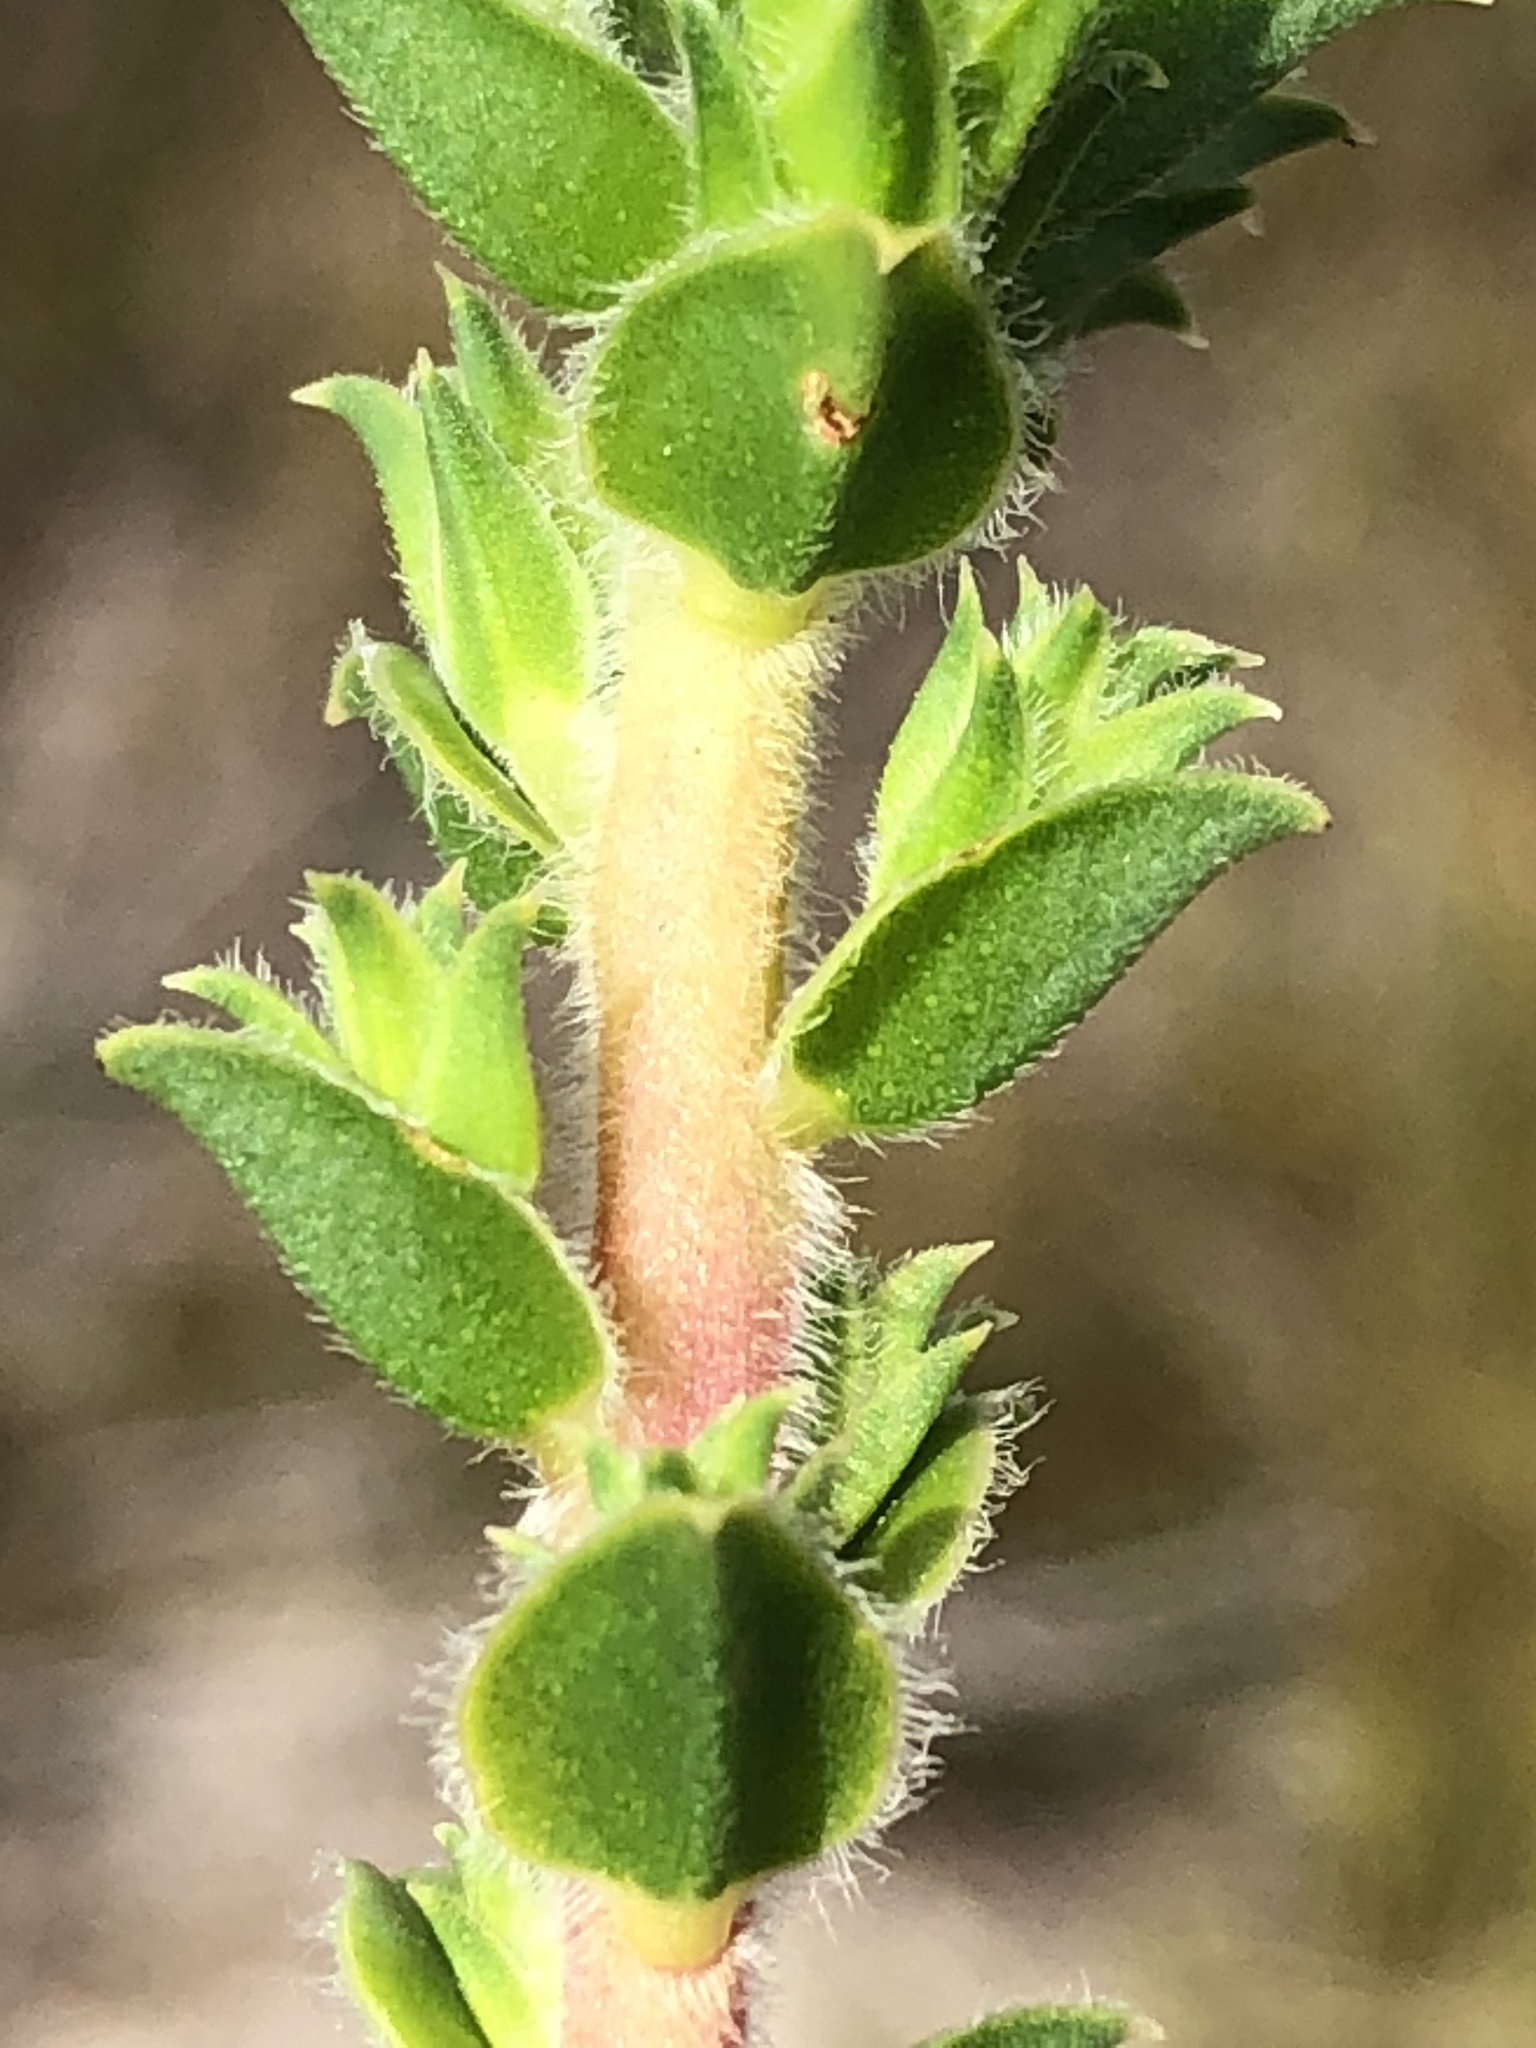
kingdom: Plantae
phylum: Tracheophyta
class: Magnoliopsida
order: Sapindales
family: Rutaceae
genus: Diosma
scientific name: Diosma awilana
